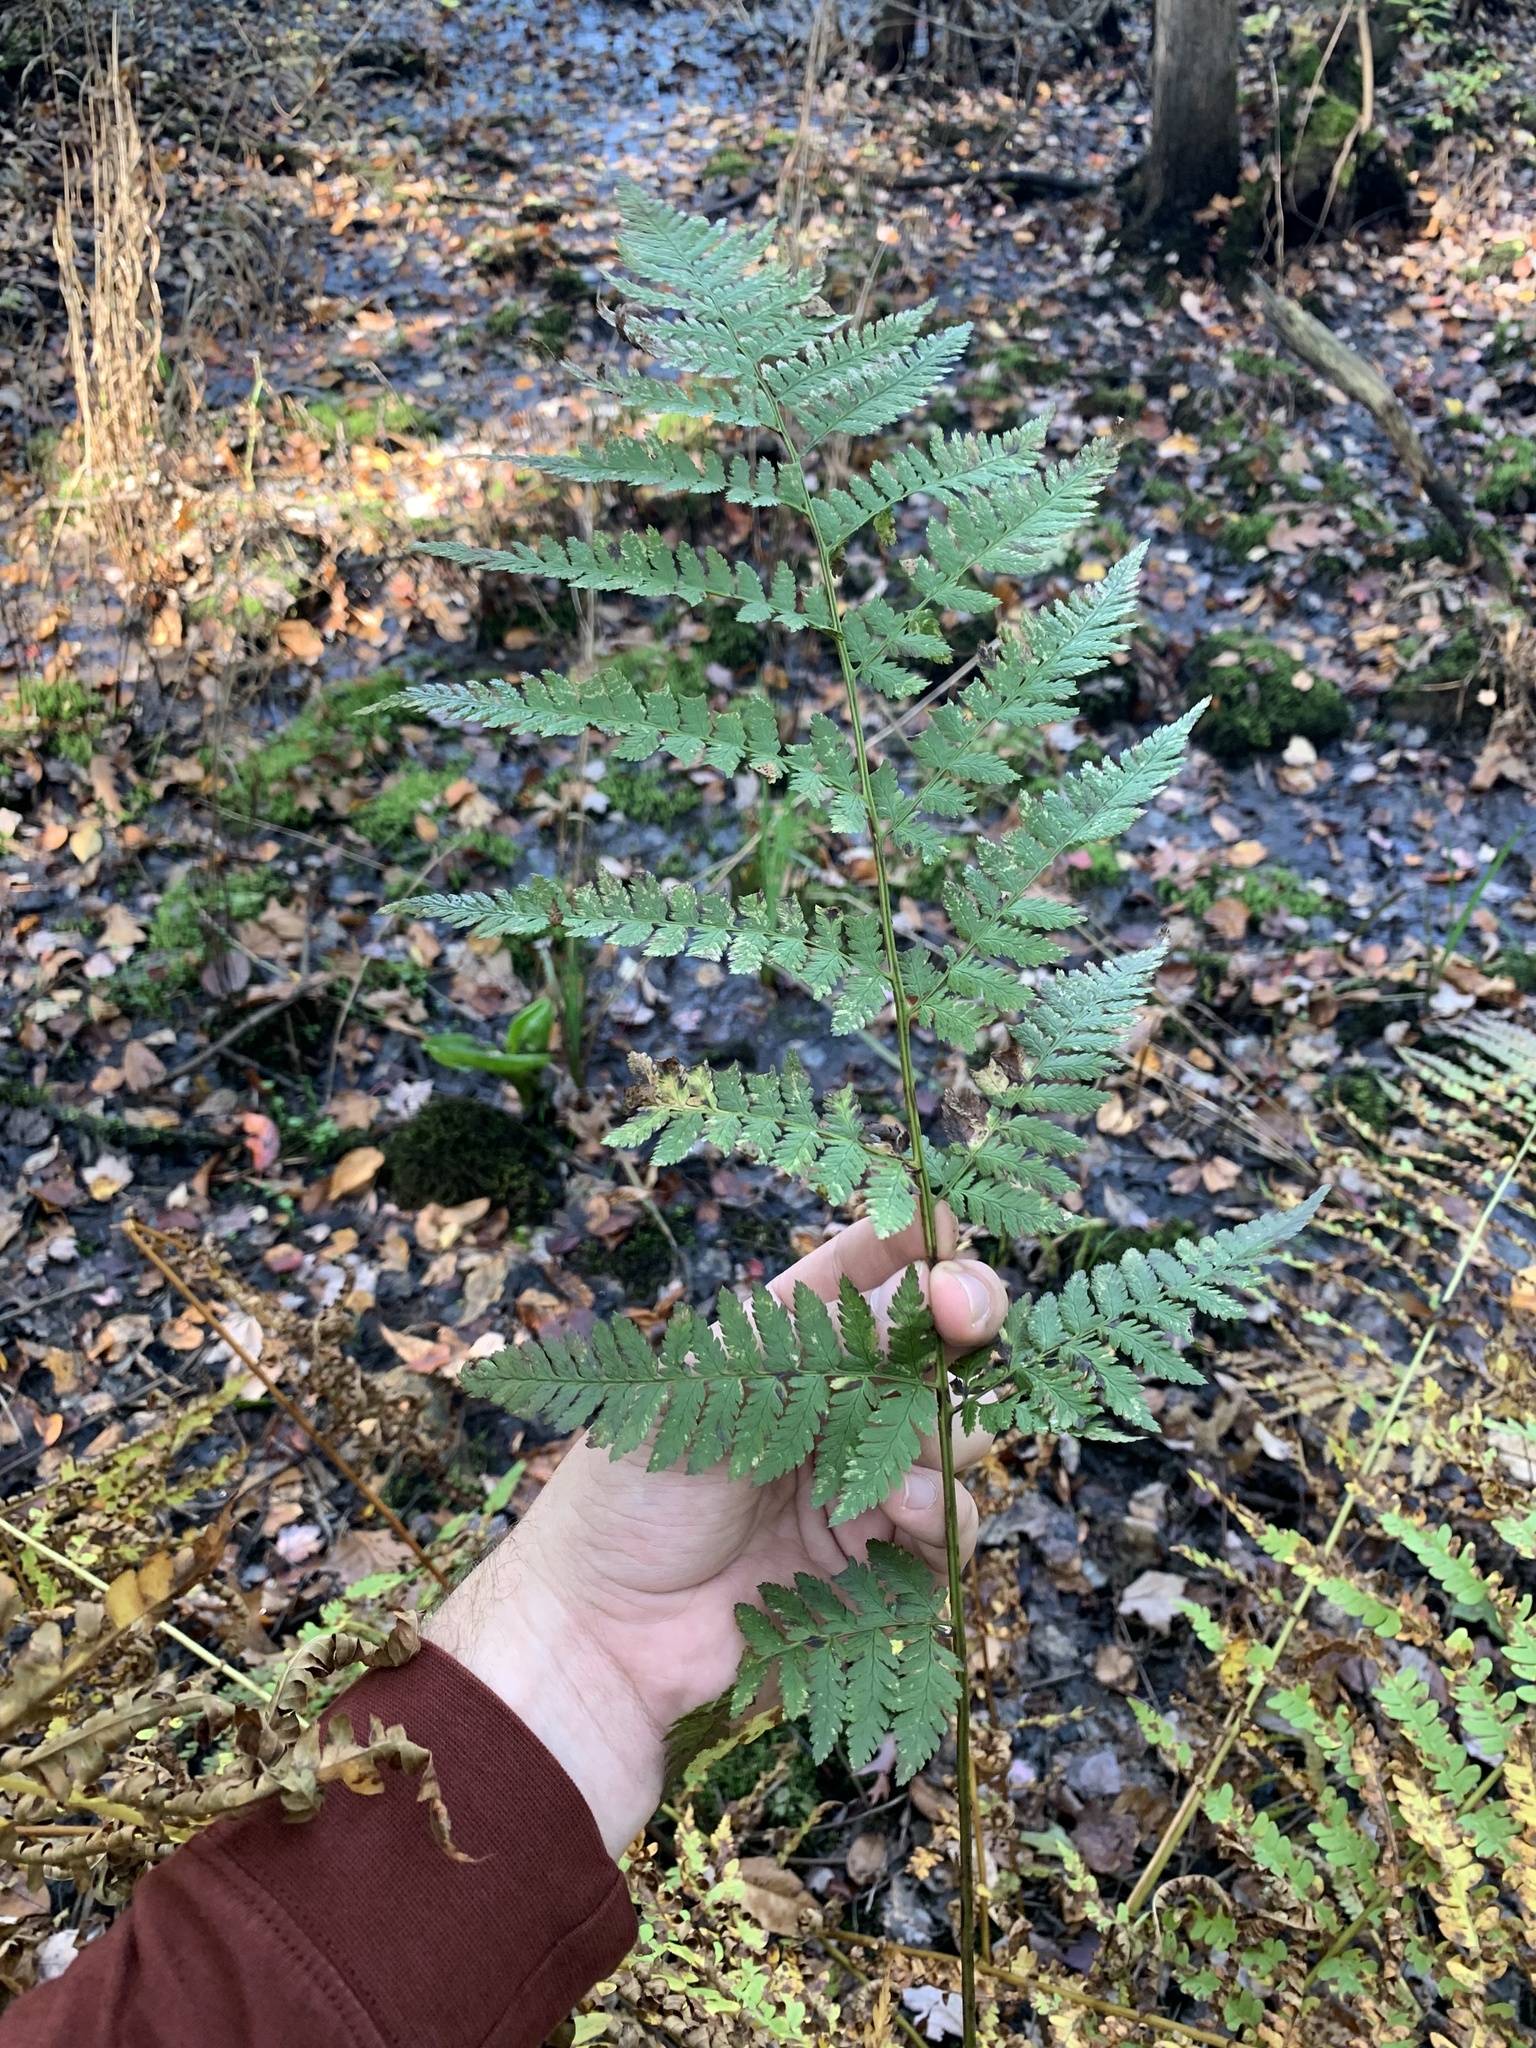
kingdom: Plantae
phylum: Tracheophyta
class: Polypodiopsida
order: Polypodiales
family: Dryopteridaceae
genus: Dryopteris
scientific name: Dryopteris carthusiana
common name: Narrow buckler-fern
